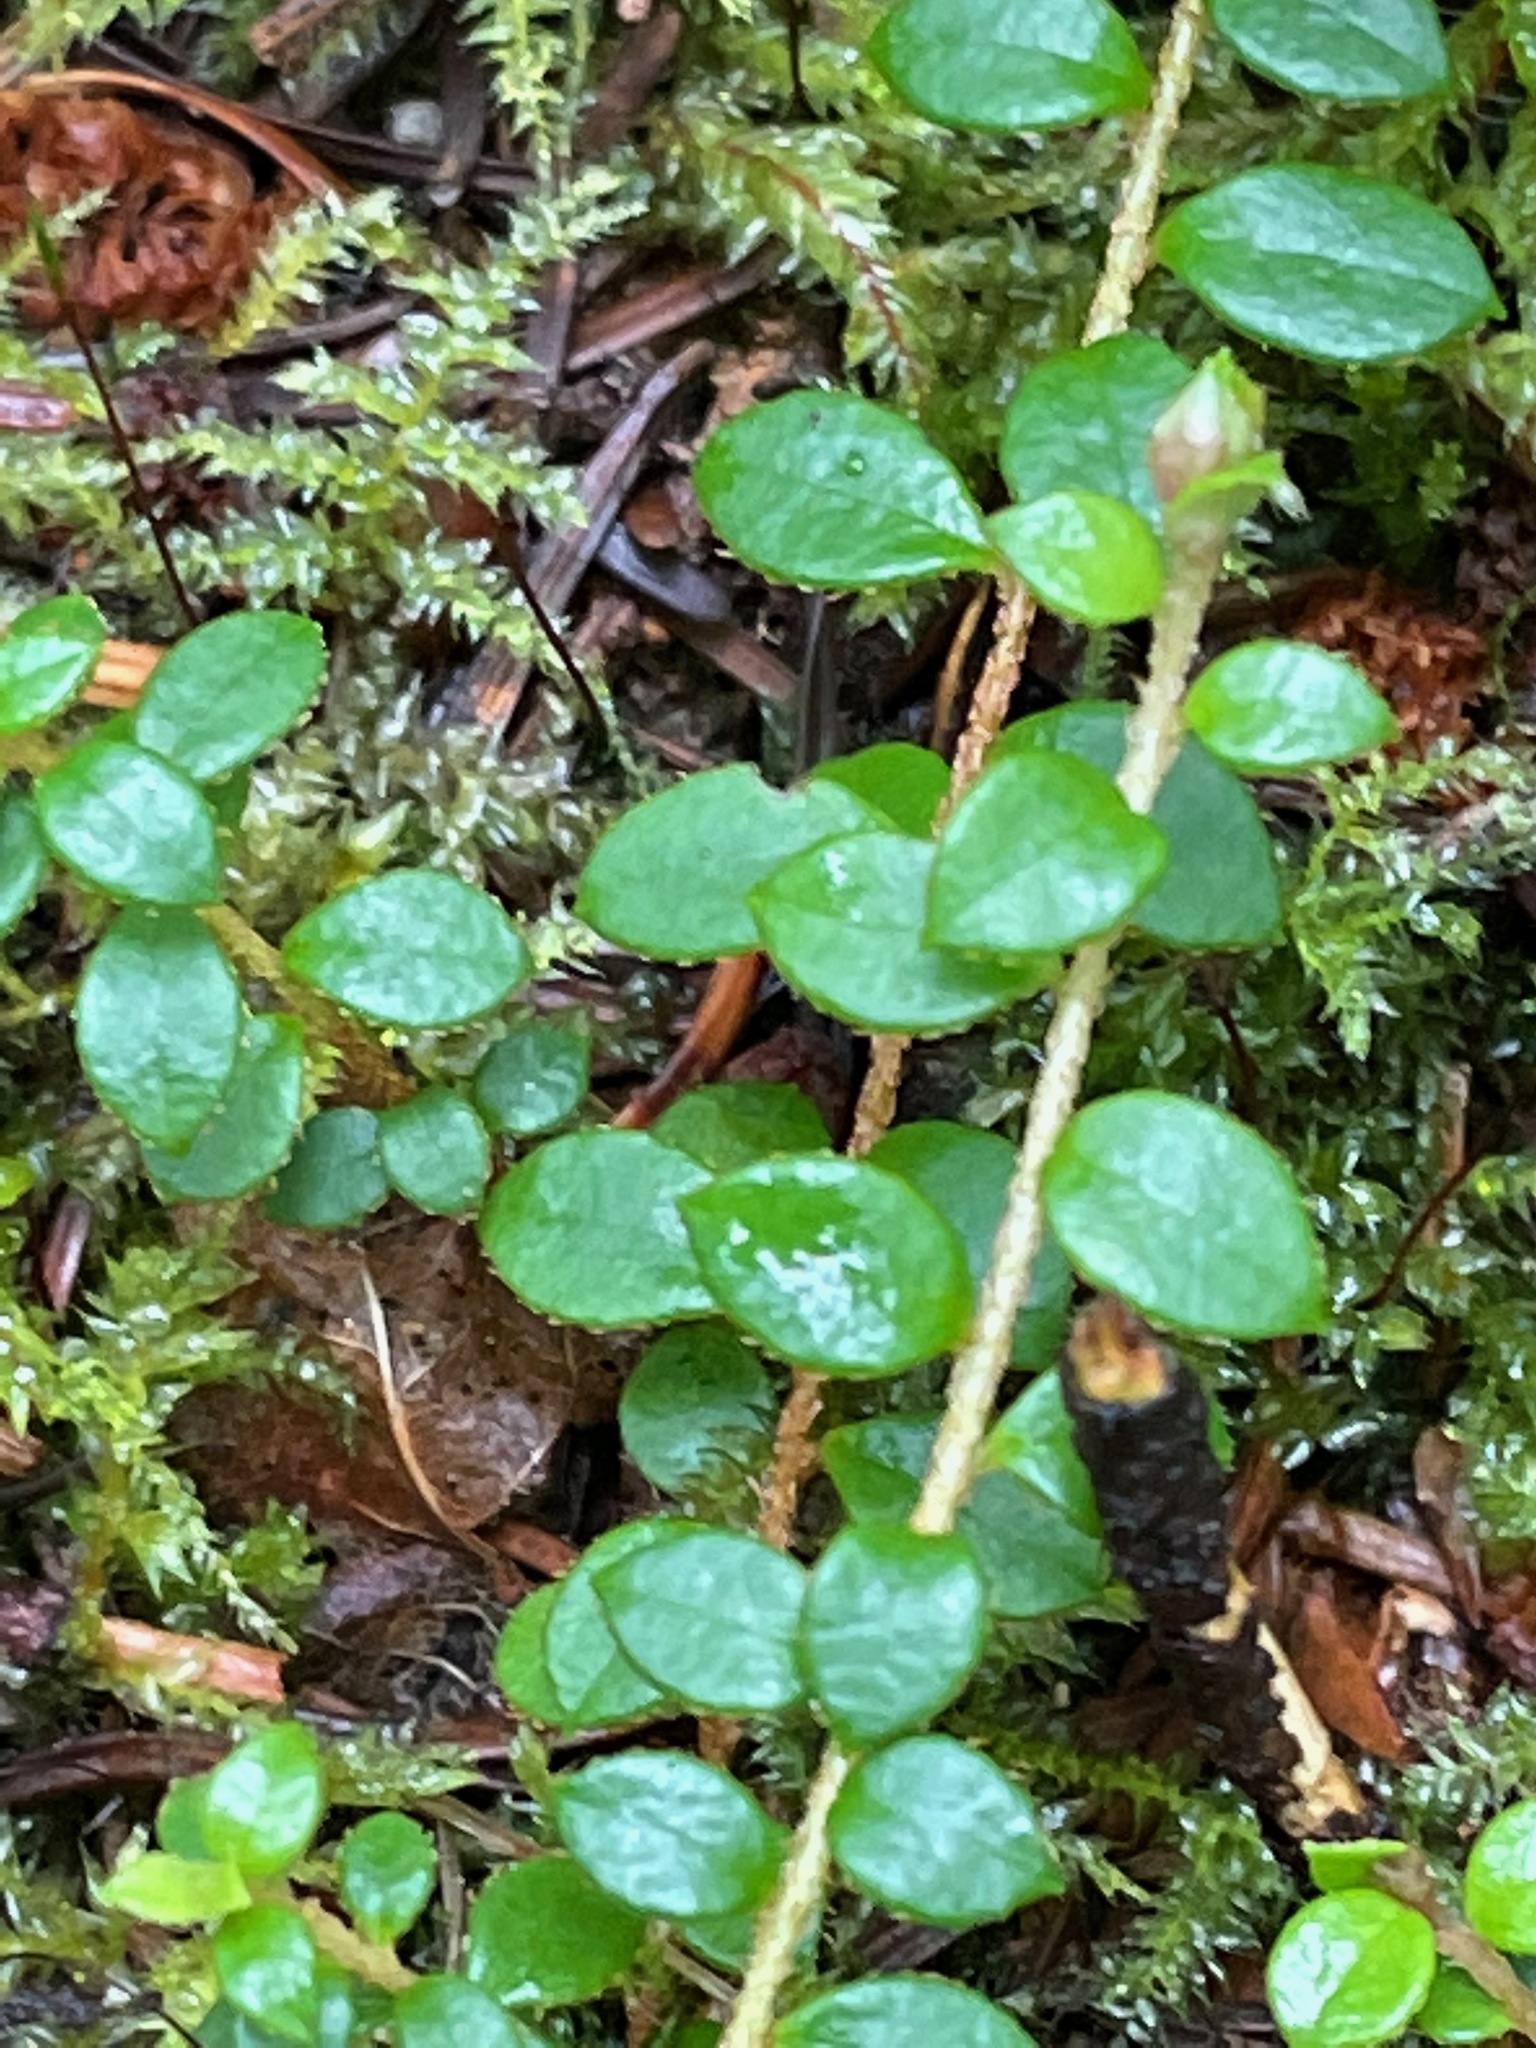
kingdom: Plantae
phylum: Tracheophyta
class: Magnoliopsida
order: Ericales
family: Ericaceae
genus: Gaultheria
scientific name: Gaultheria hispidula
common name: Cancer wintergreen
